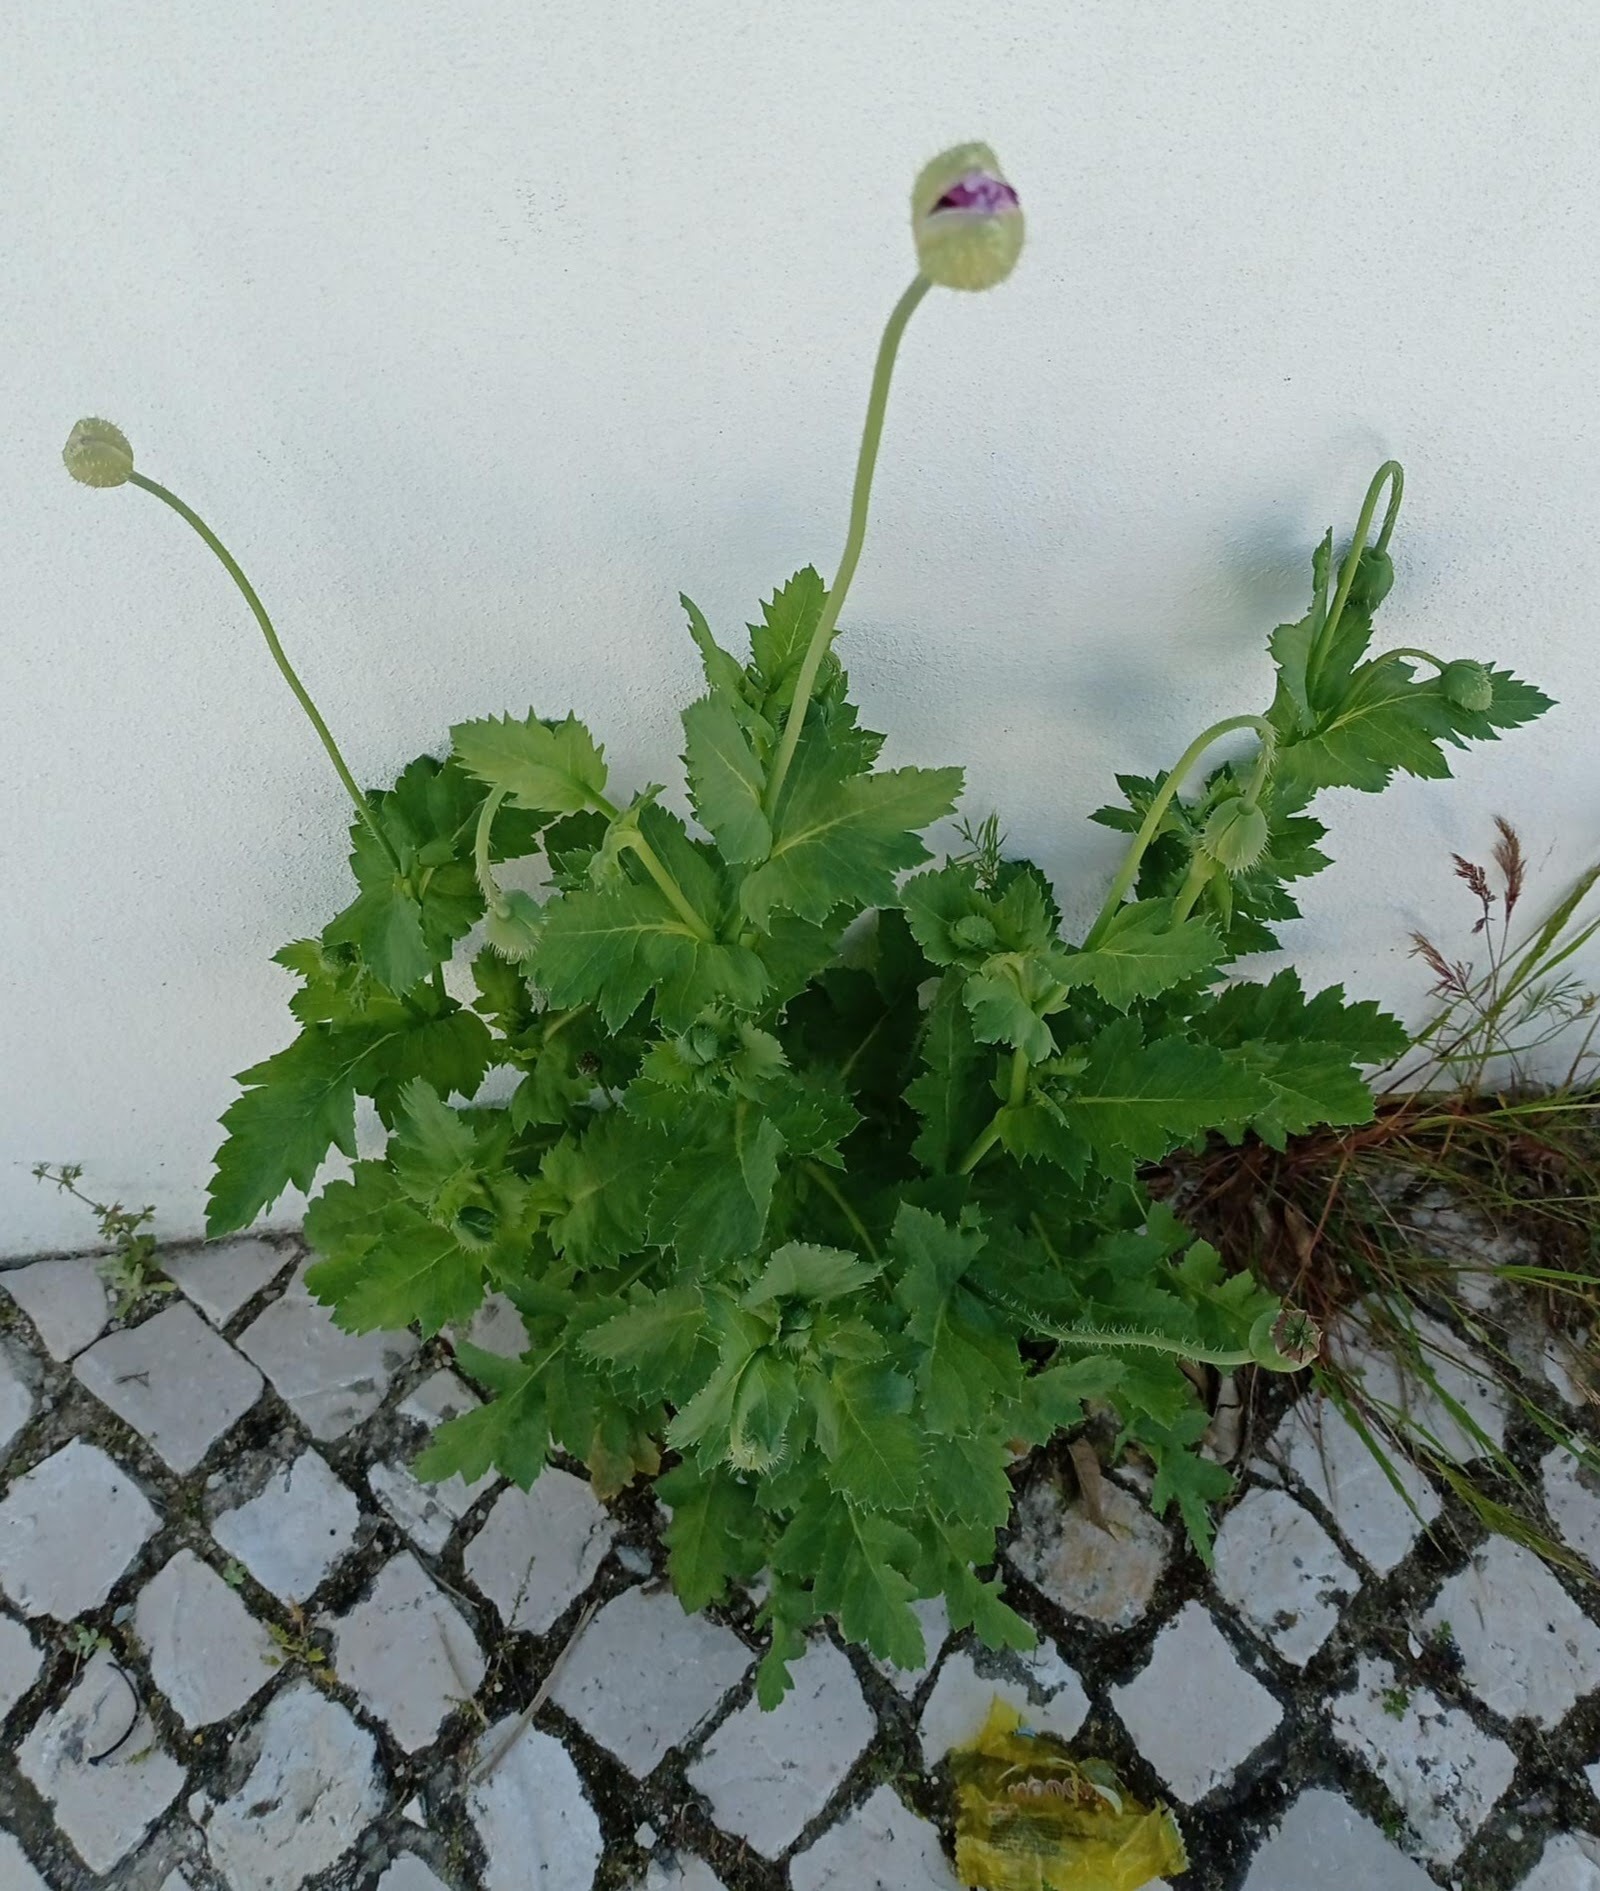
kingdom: Plantae
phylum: Tracheophyta
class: Magnoliopsida
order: Ranunculales
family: Papaveraceae
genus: Papaver
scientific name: Papaver somniferum
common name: Opium poppy
